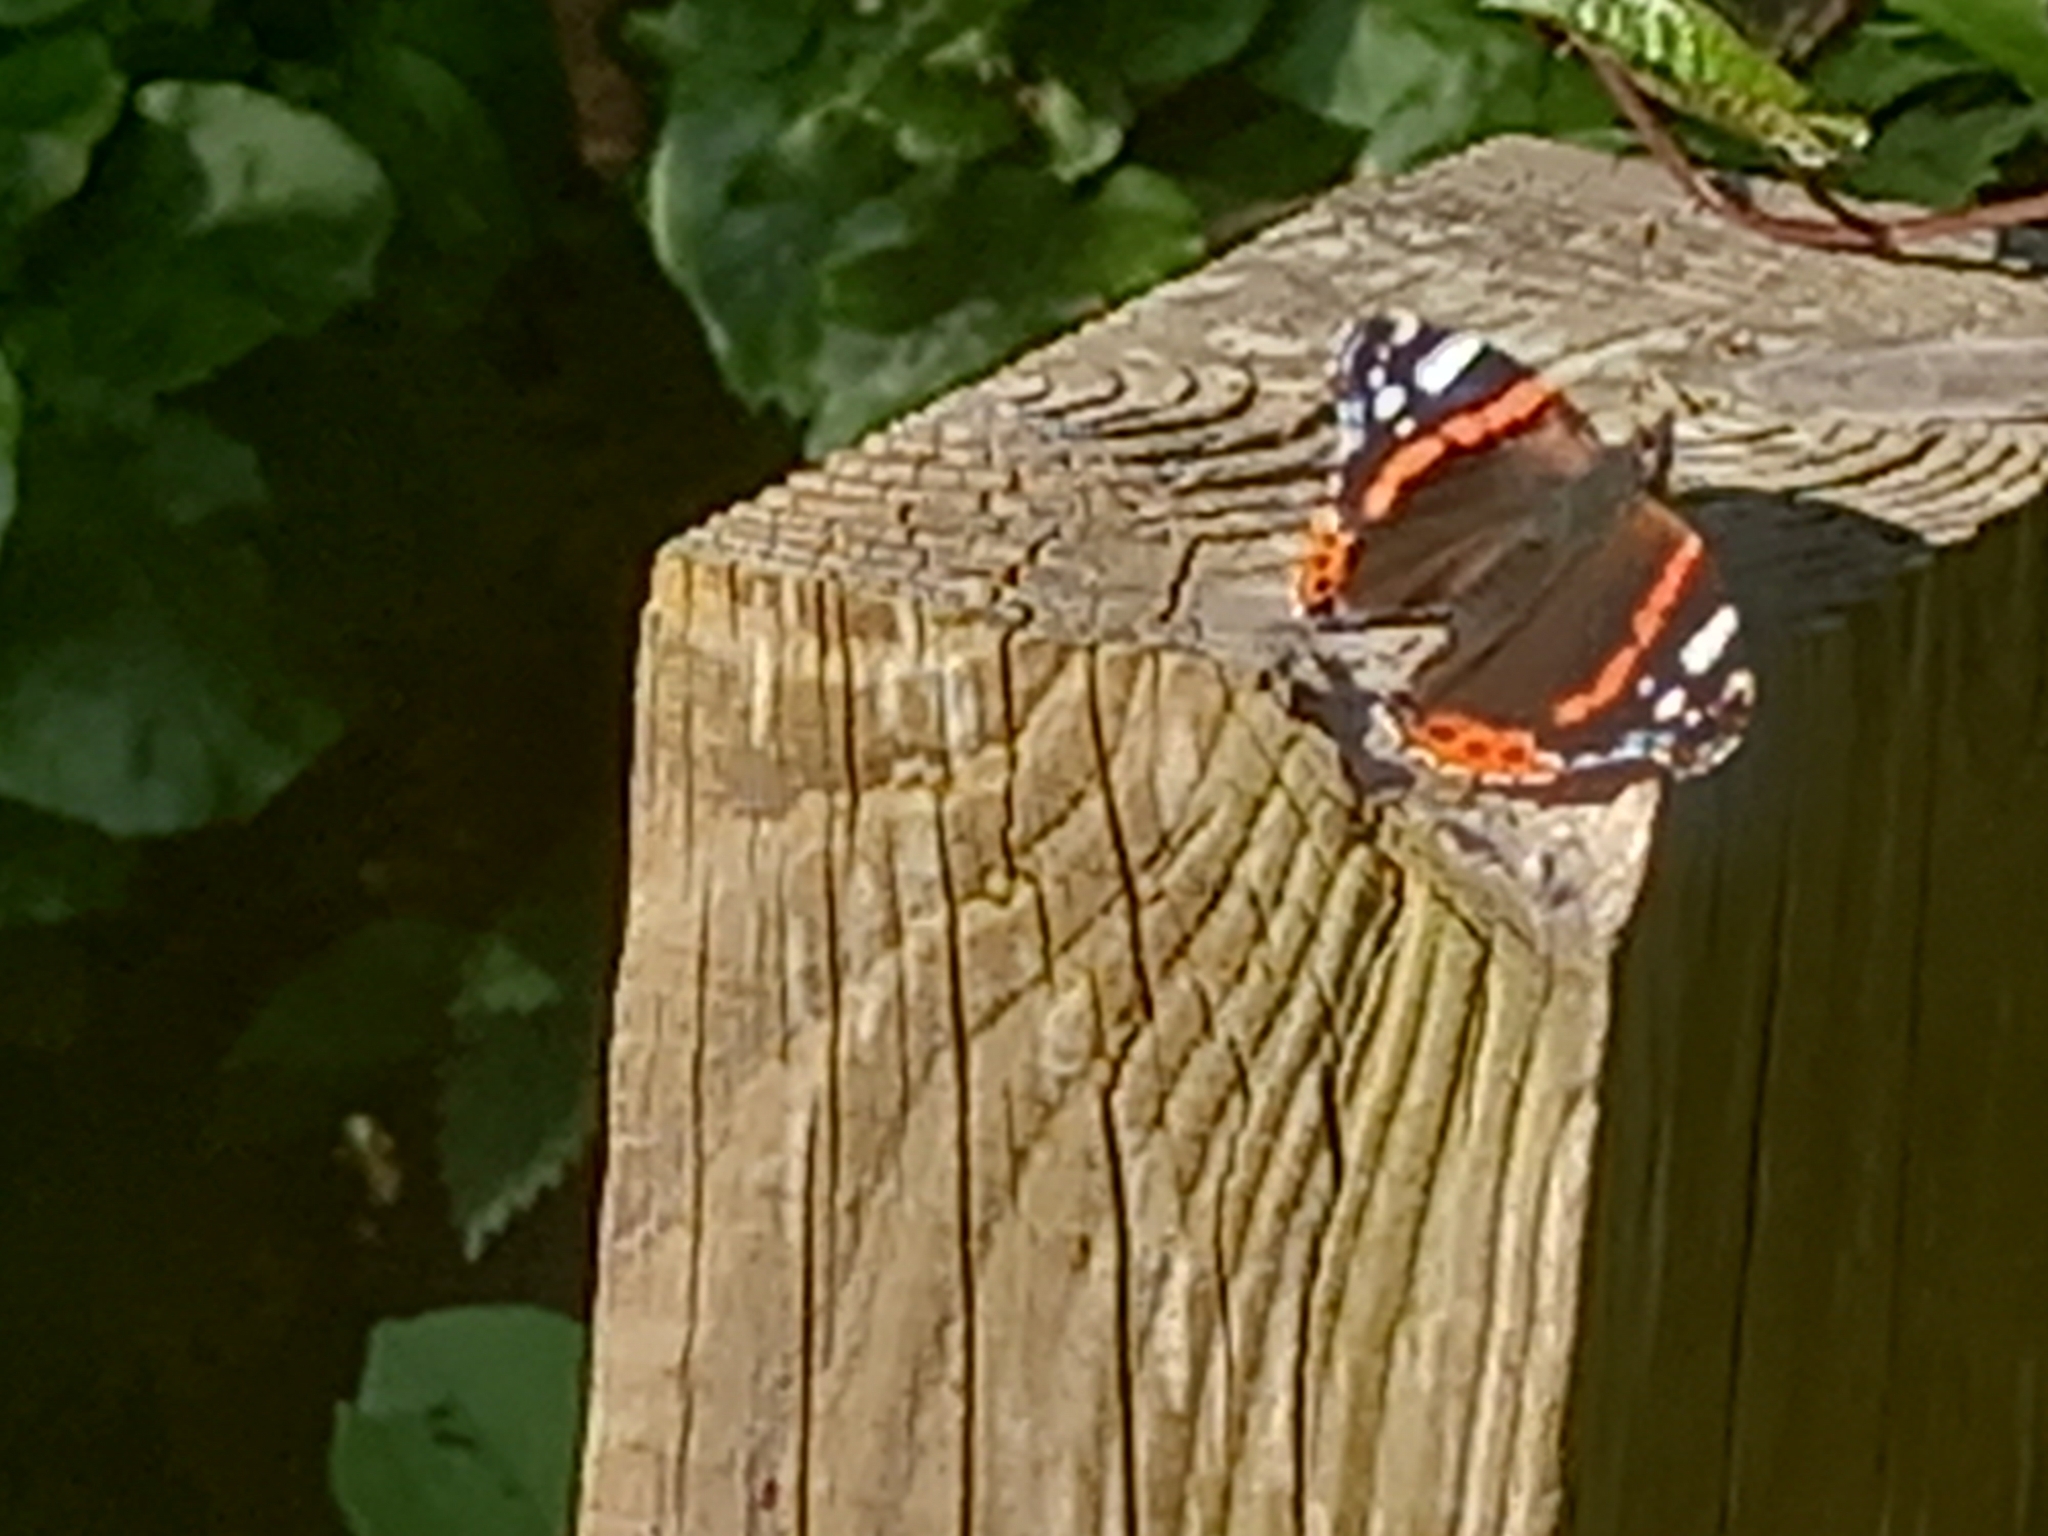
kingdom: Animalia
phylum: Arthropoda
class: Insecta
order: Lepidoptera
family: Nymphalidae
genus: Vanessa
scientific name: Vanessa atalanta
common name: Red admiral
